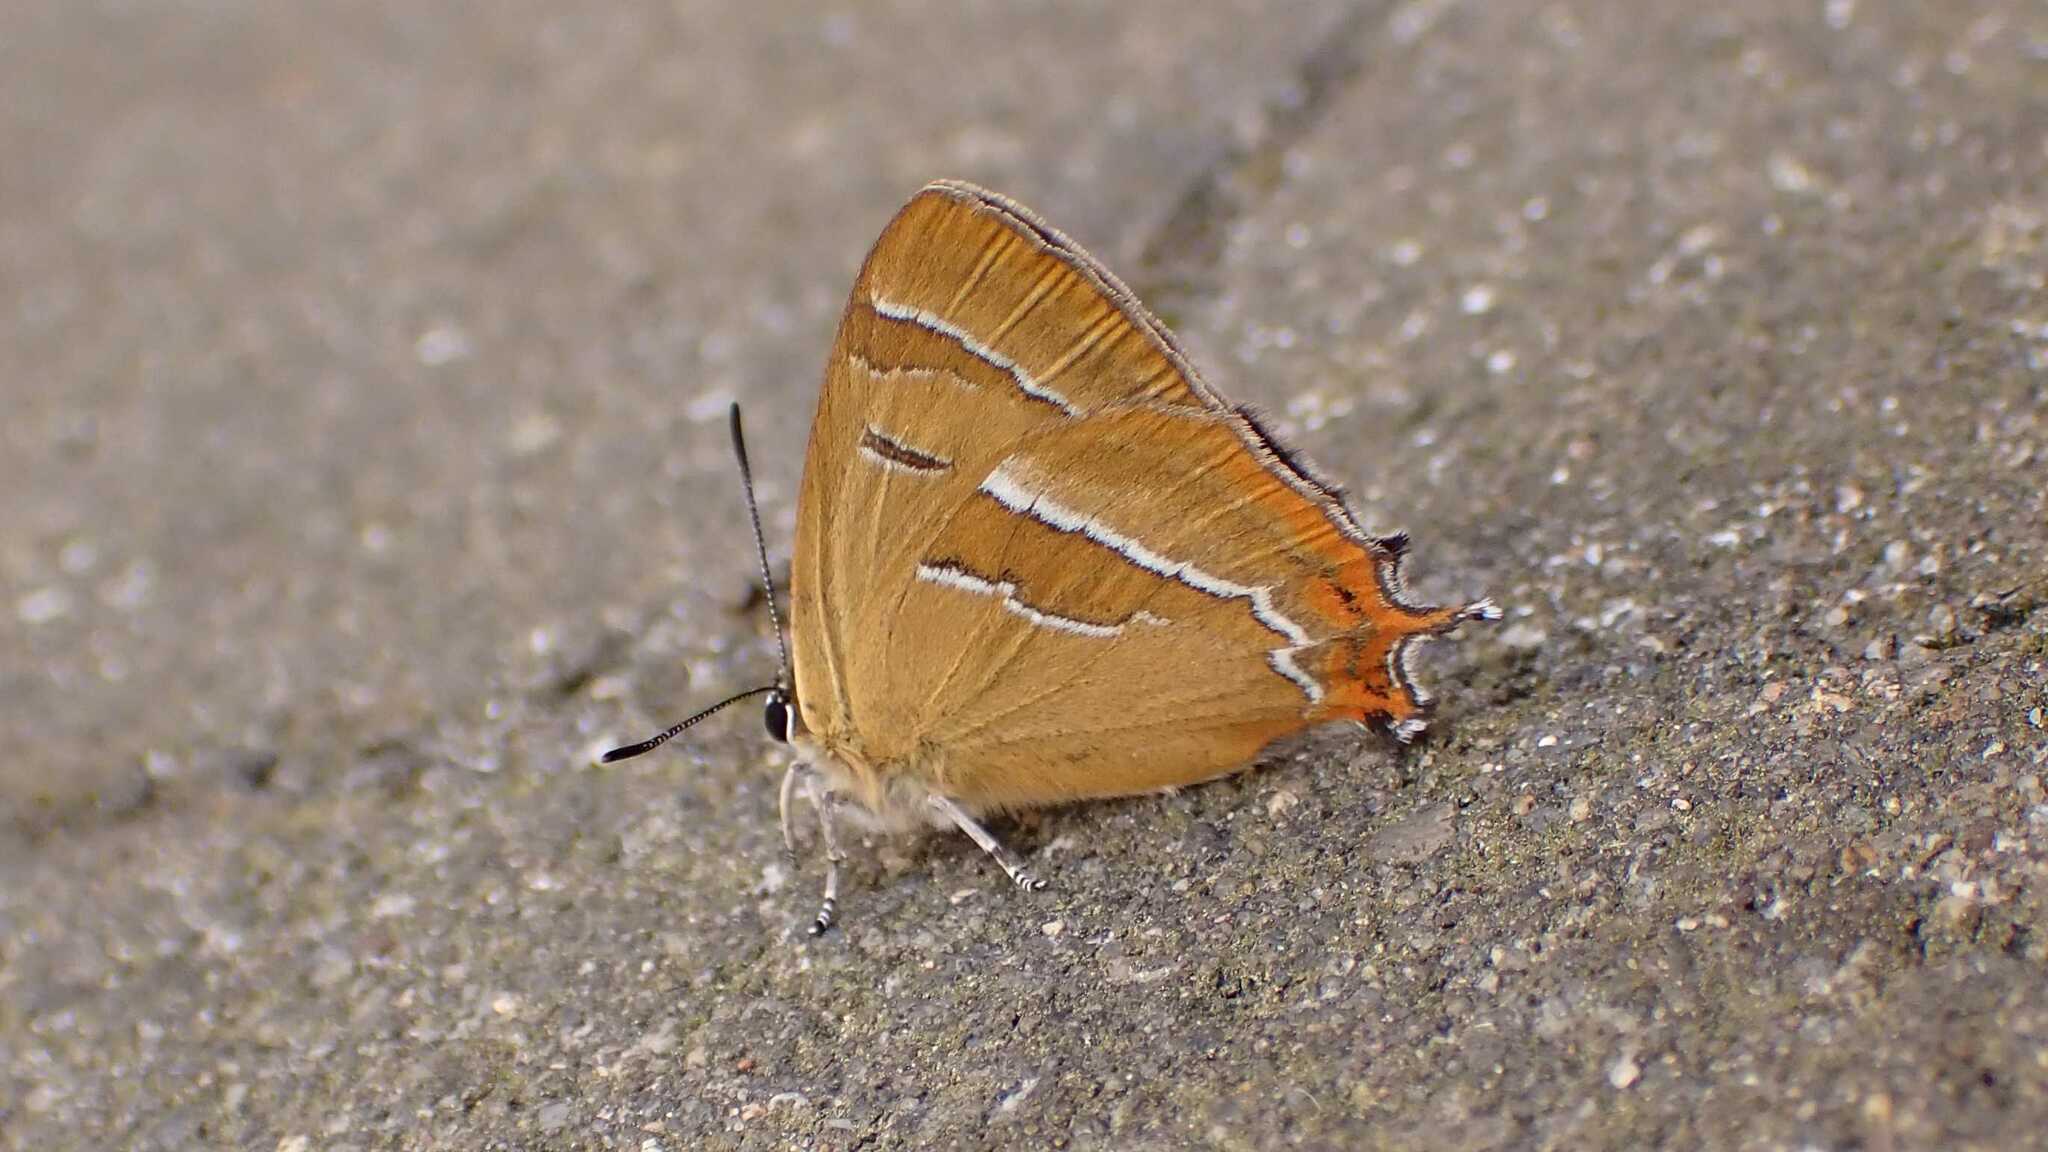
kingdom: Animalia
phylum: Arthropoda
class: Insecta
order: Lepidoptera
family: Lycaenidae
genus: Thecla
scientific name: Thecla betulae
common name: Brown hairstreak
